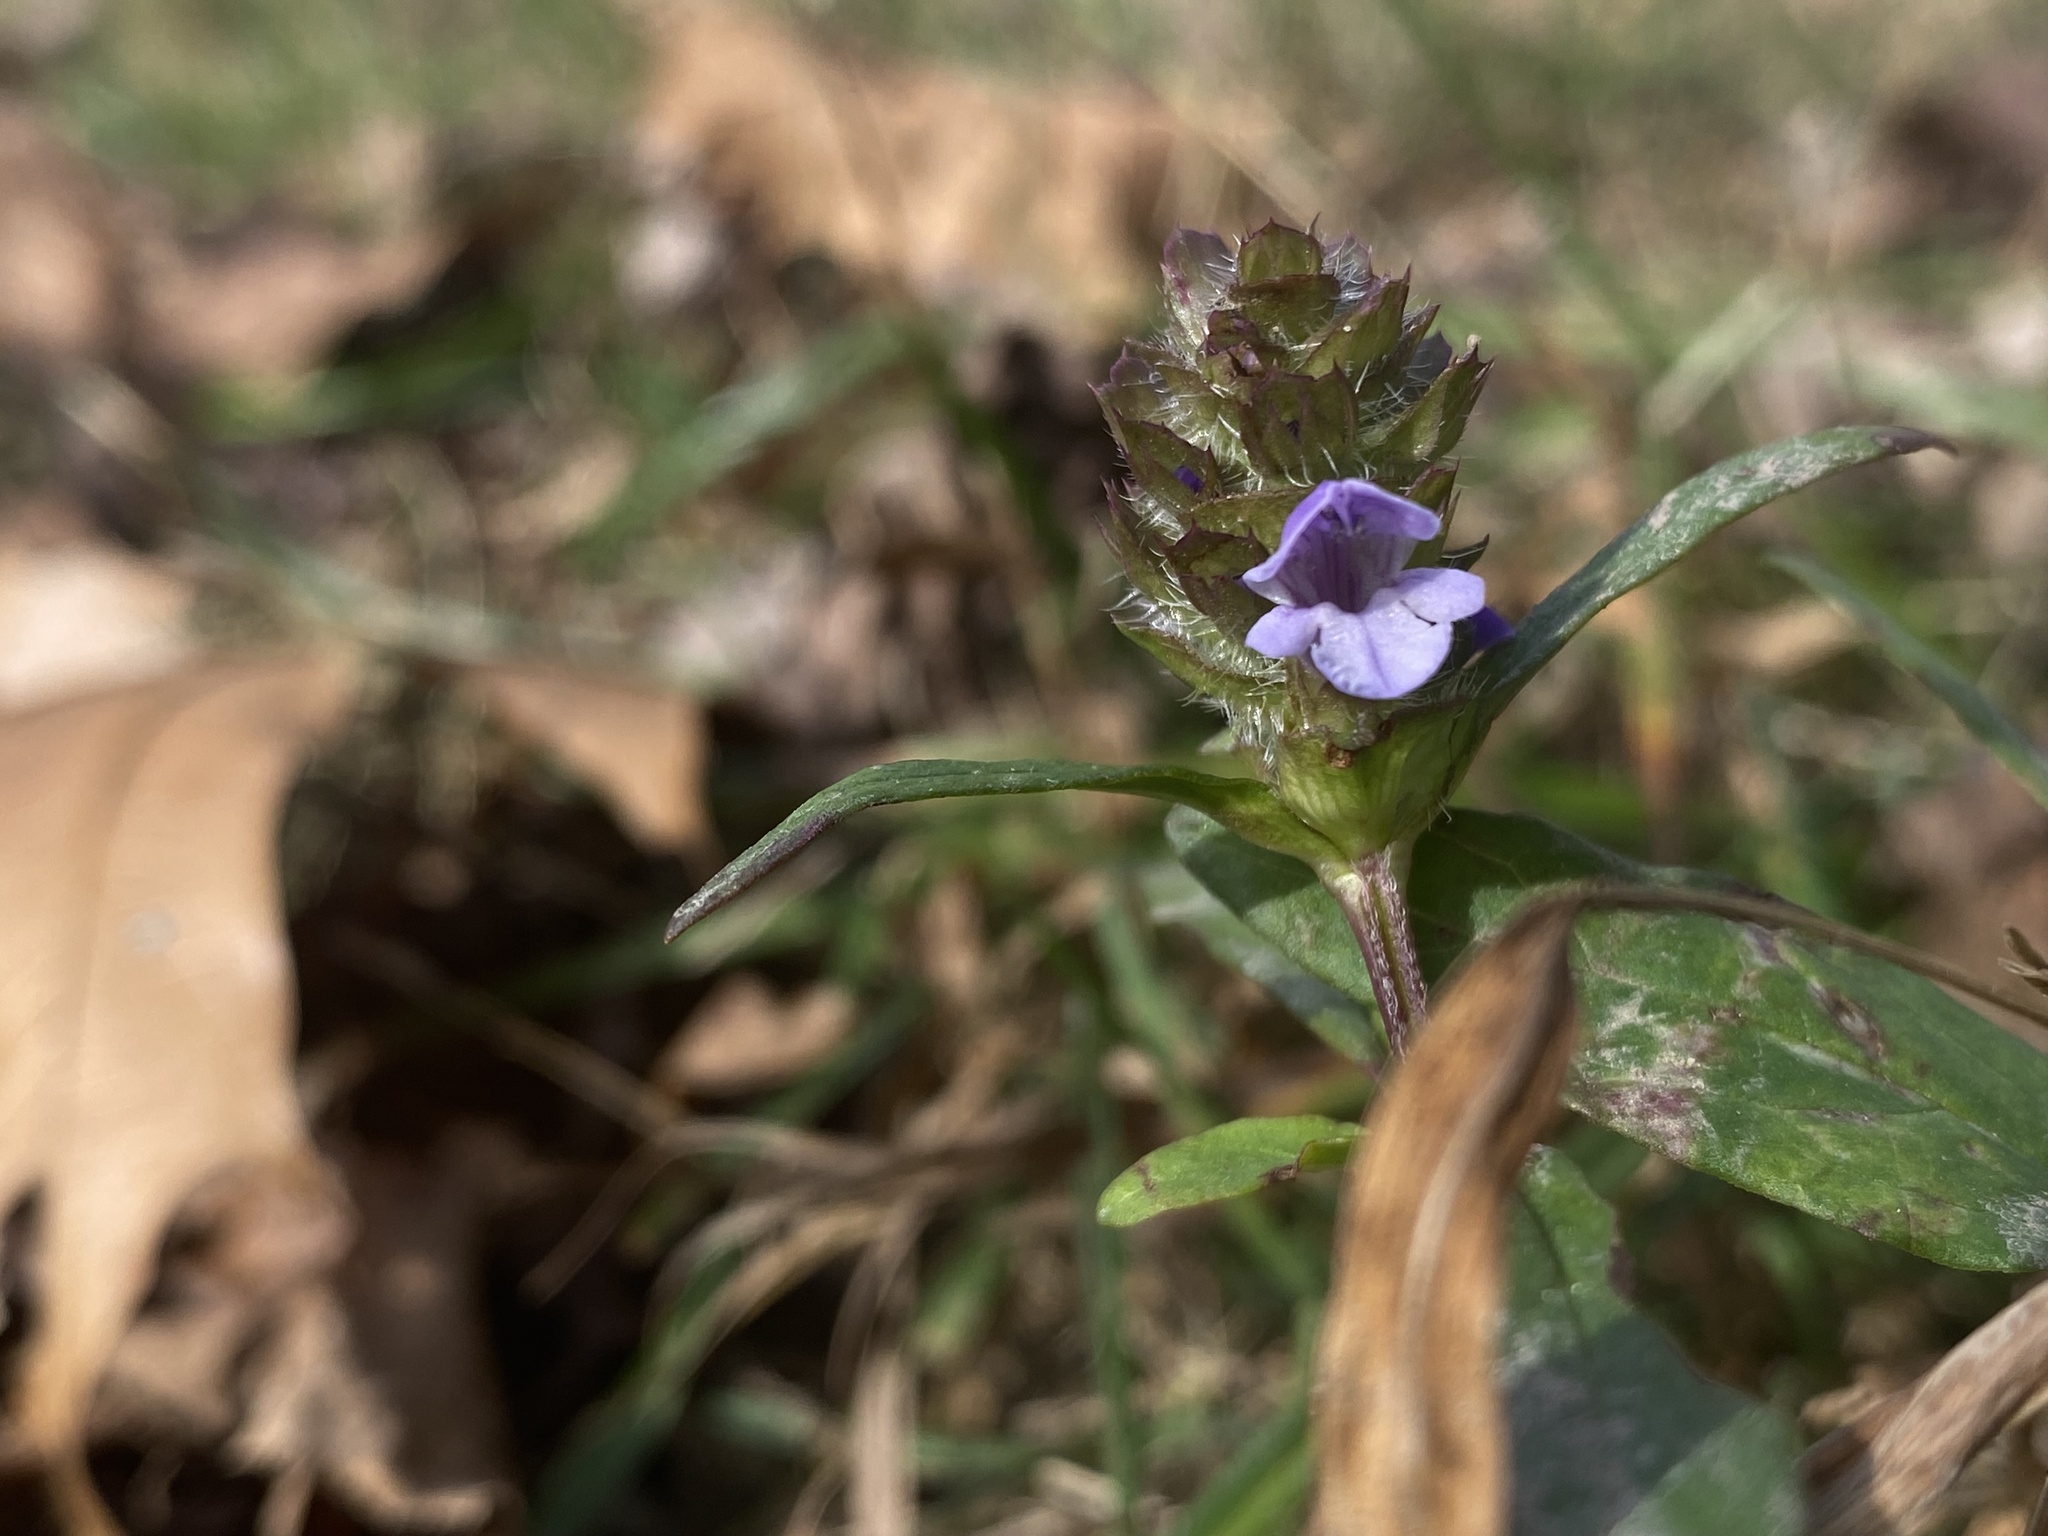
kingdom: Plantae
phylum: Tracheophyta
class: Magnoliopsida
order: Lamiales
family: Lamiaceae
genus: Prunella
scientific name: Prunella vulgaris
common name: Heal-all
